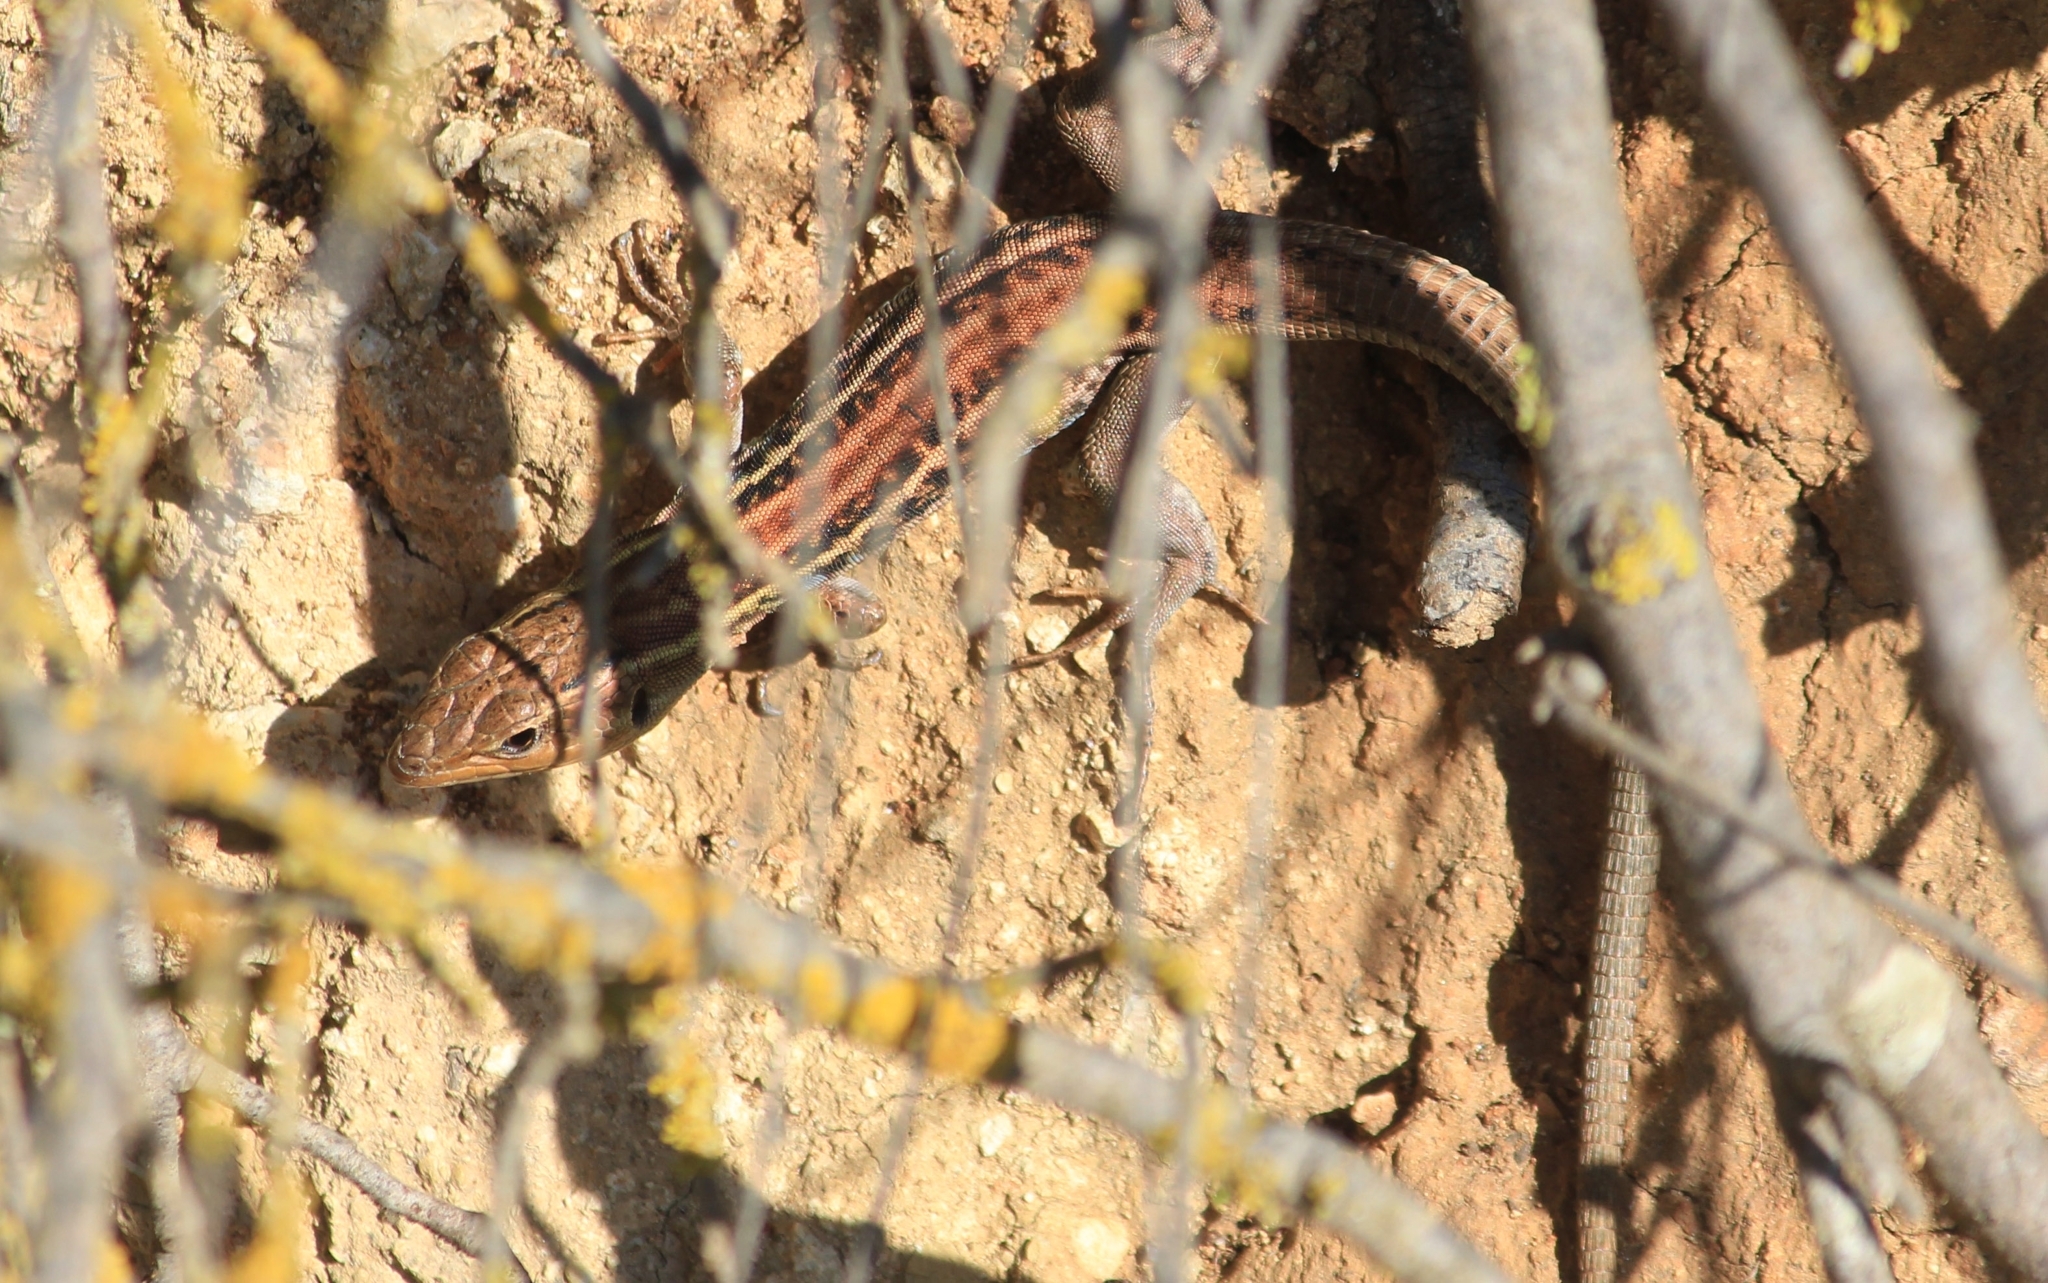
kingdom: Animalia
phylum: Chordata
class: Squamata
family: Lacertidae
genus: Podarcis
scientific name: Podarcis peloponnesiacus
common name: Peloponnese wall lizard
